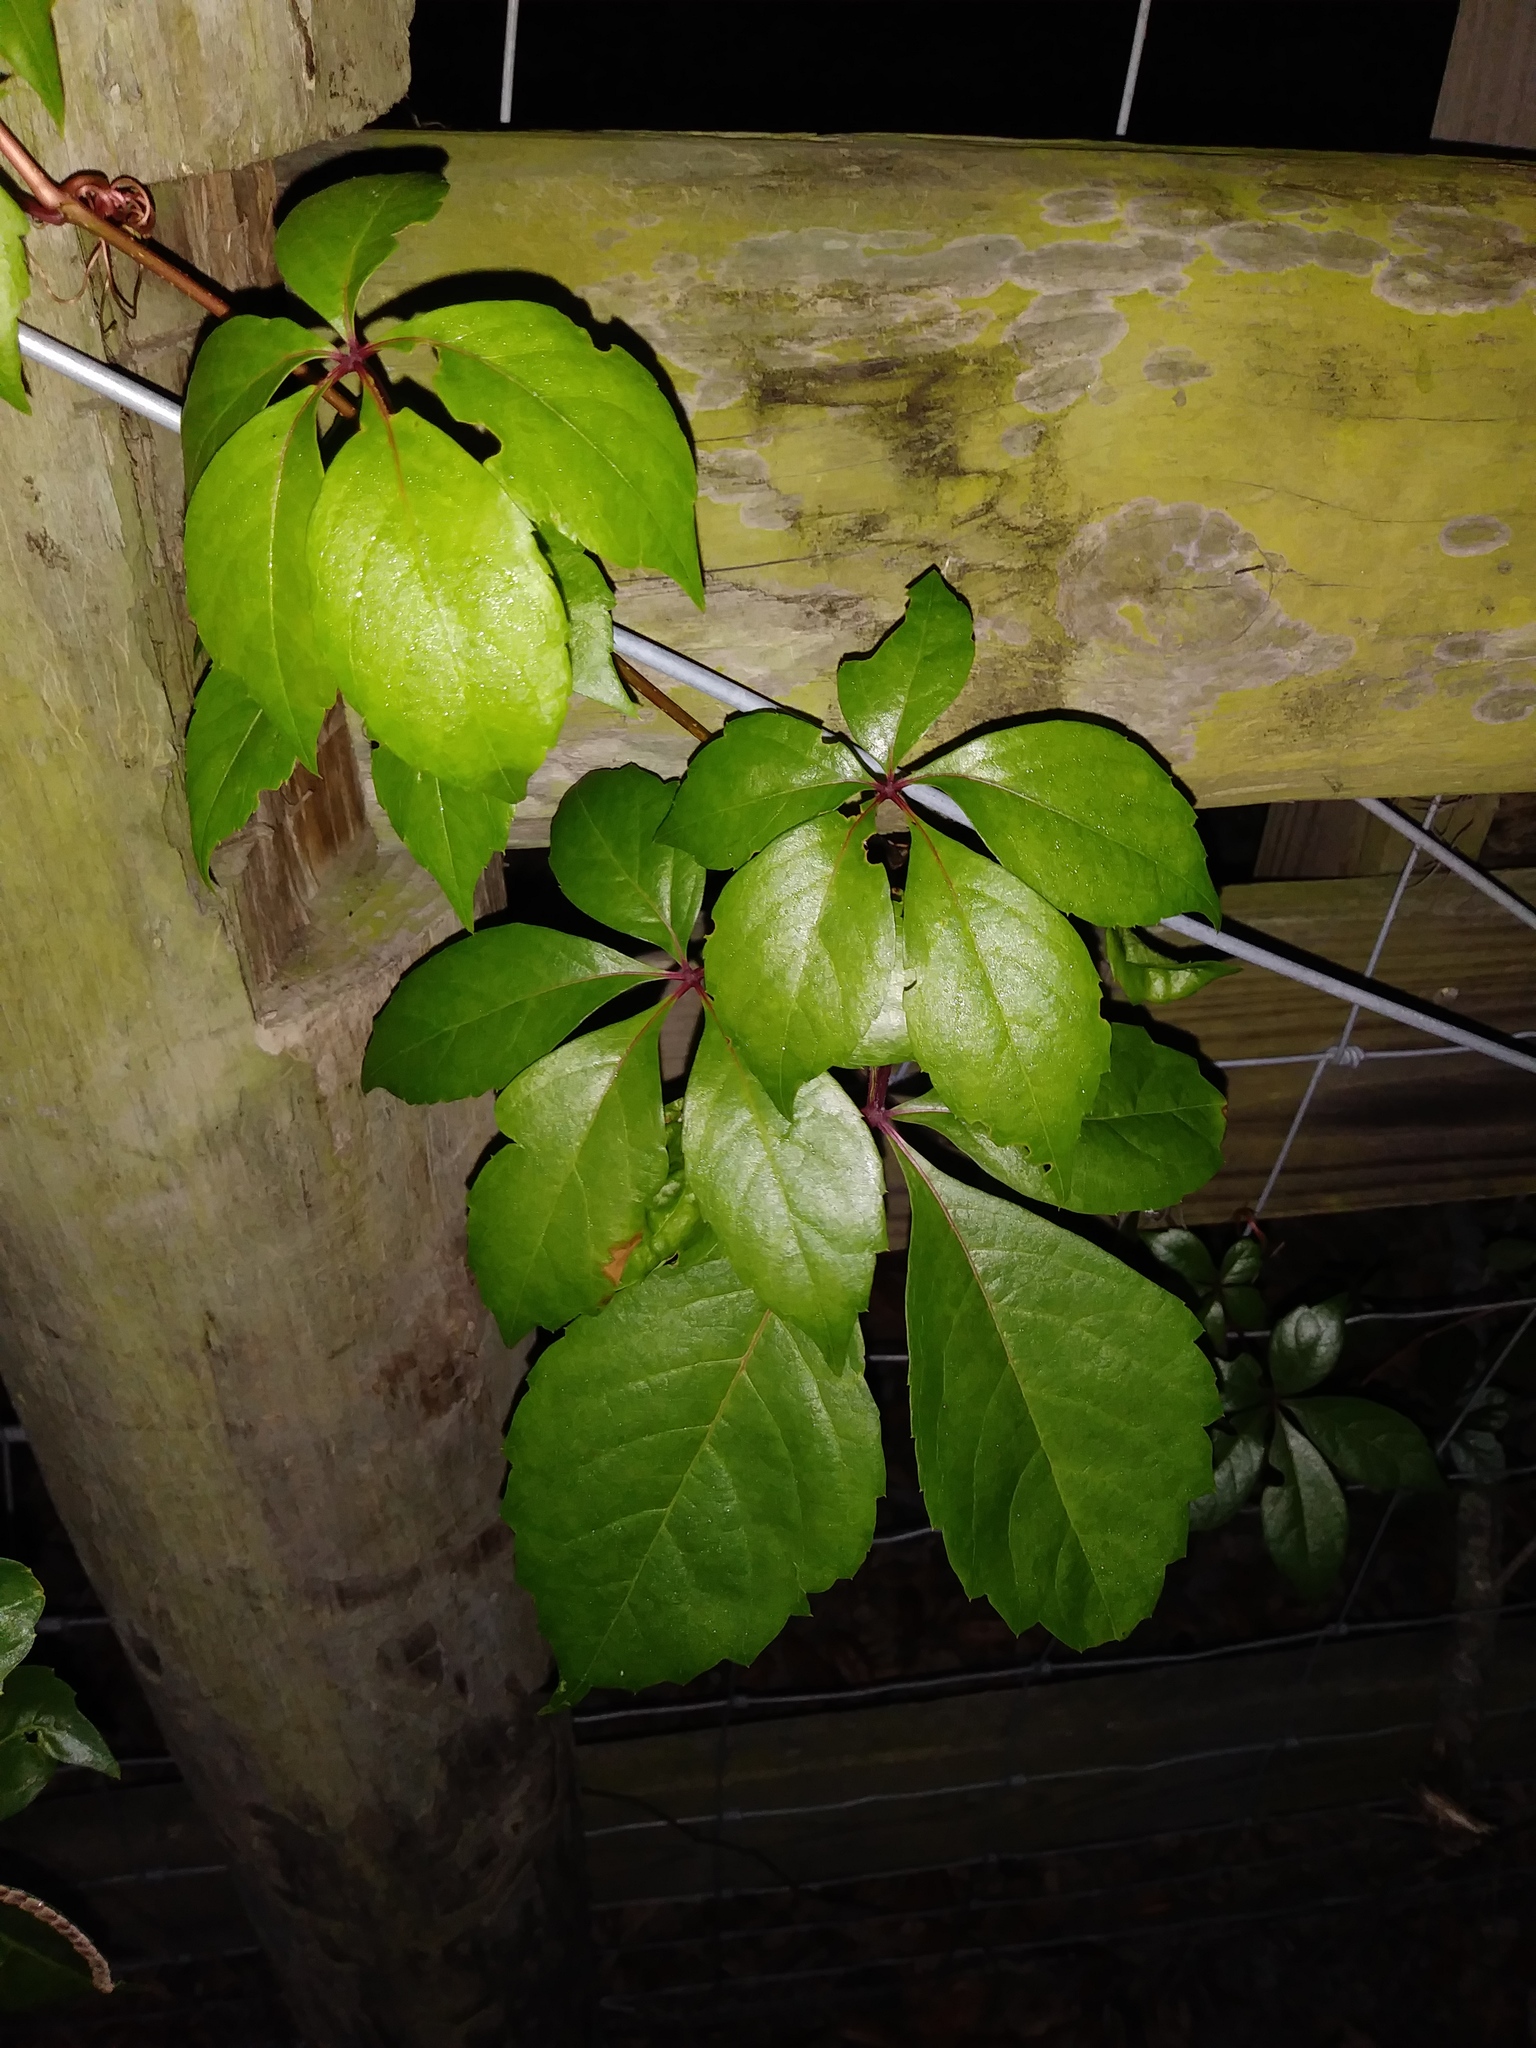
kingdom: Plantae
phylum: Tracheophyta
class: Magnoliopsida
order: Vitales
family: Vitaceae
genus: Parthenocissus
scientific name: Parthenocissus quinquefolia
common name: Virginia-creeper
